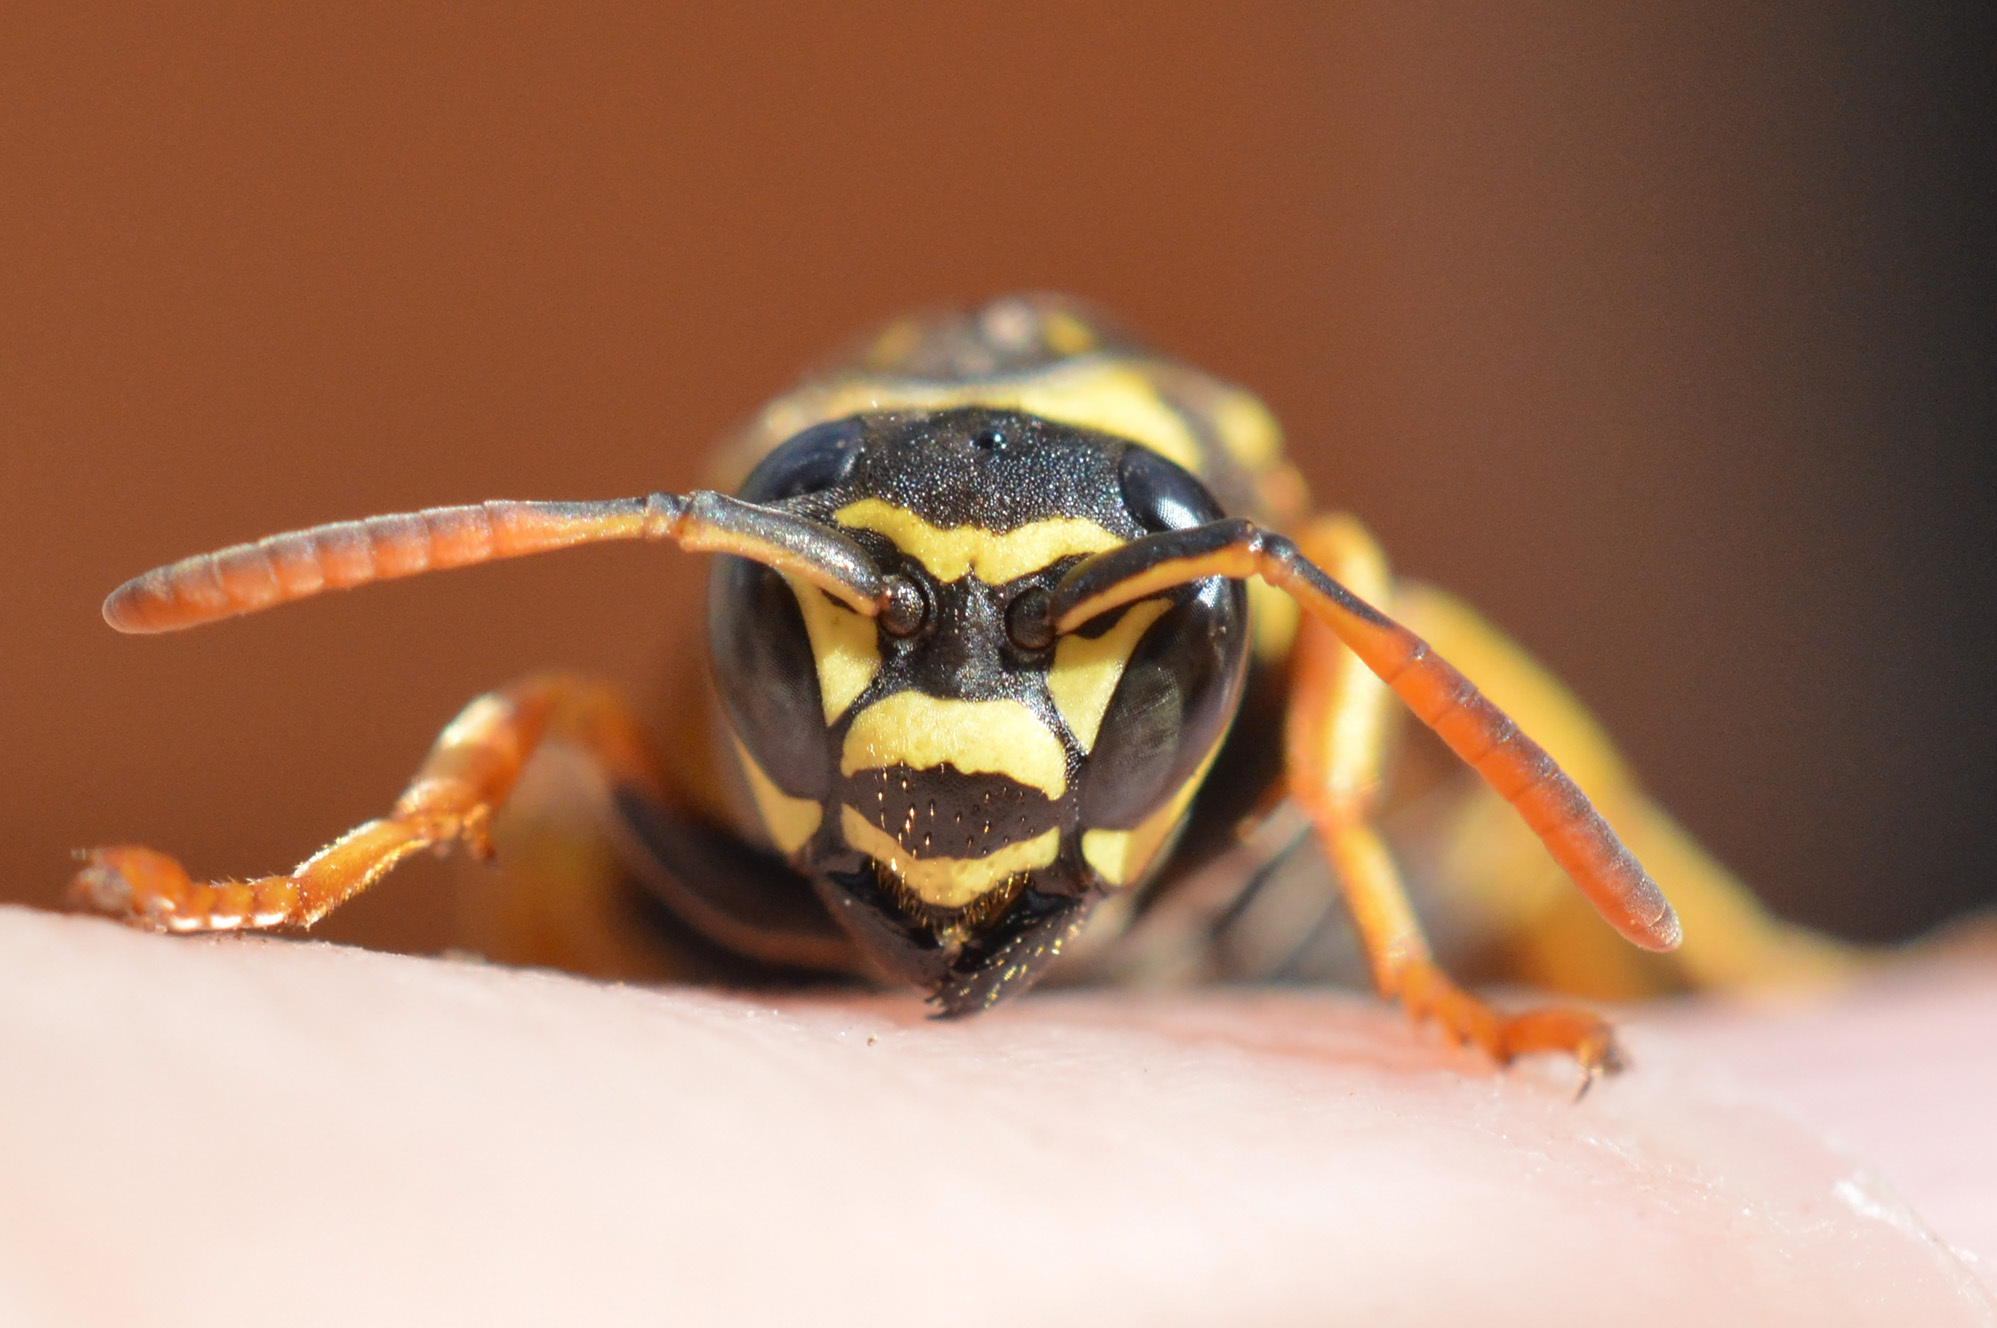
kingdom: Animalia
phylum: Arthropoda
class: Insecta
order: Hymenoptera
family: Eumenidae
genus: Polistes
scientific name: Polistes nimpha
